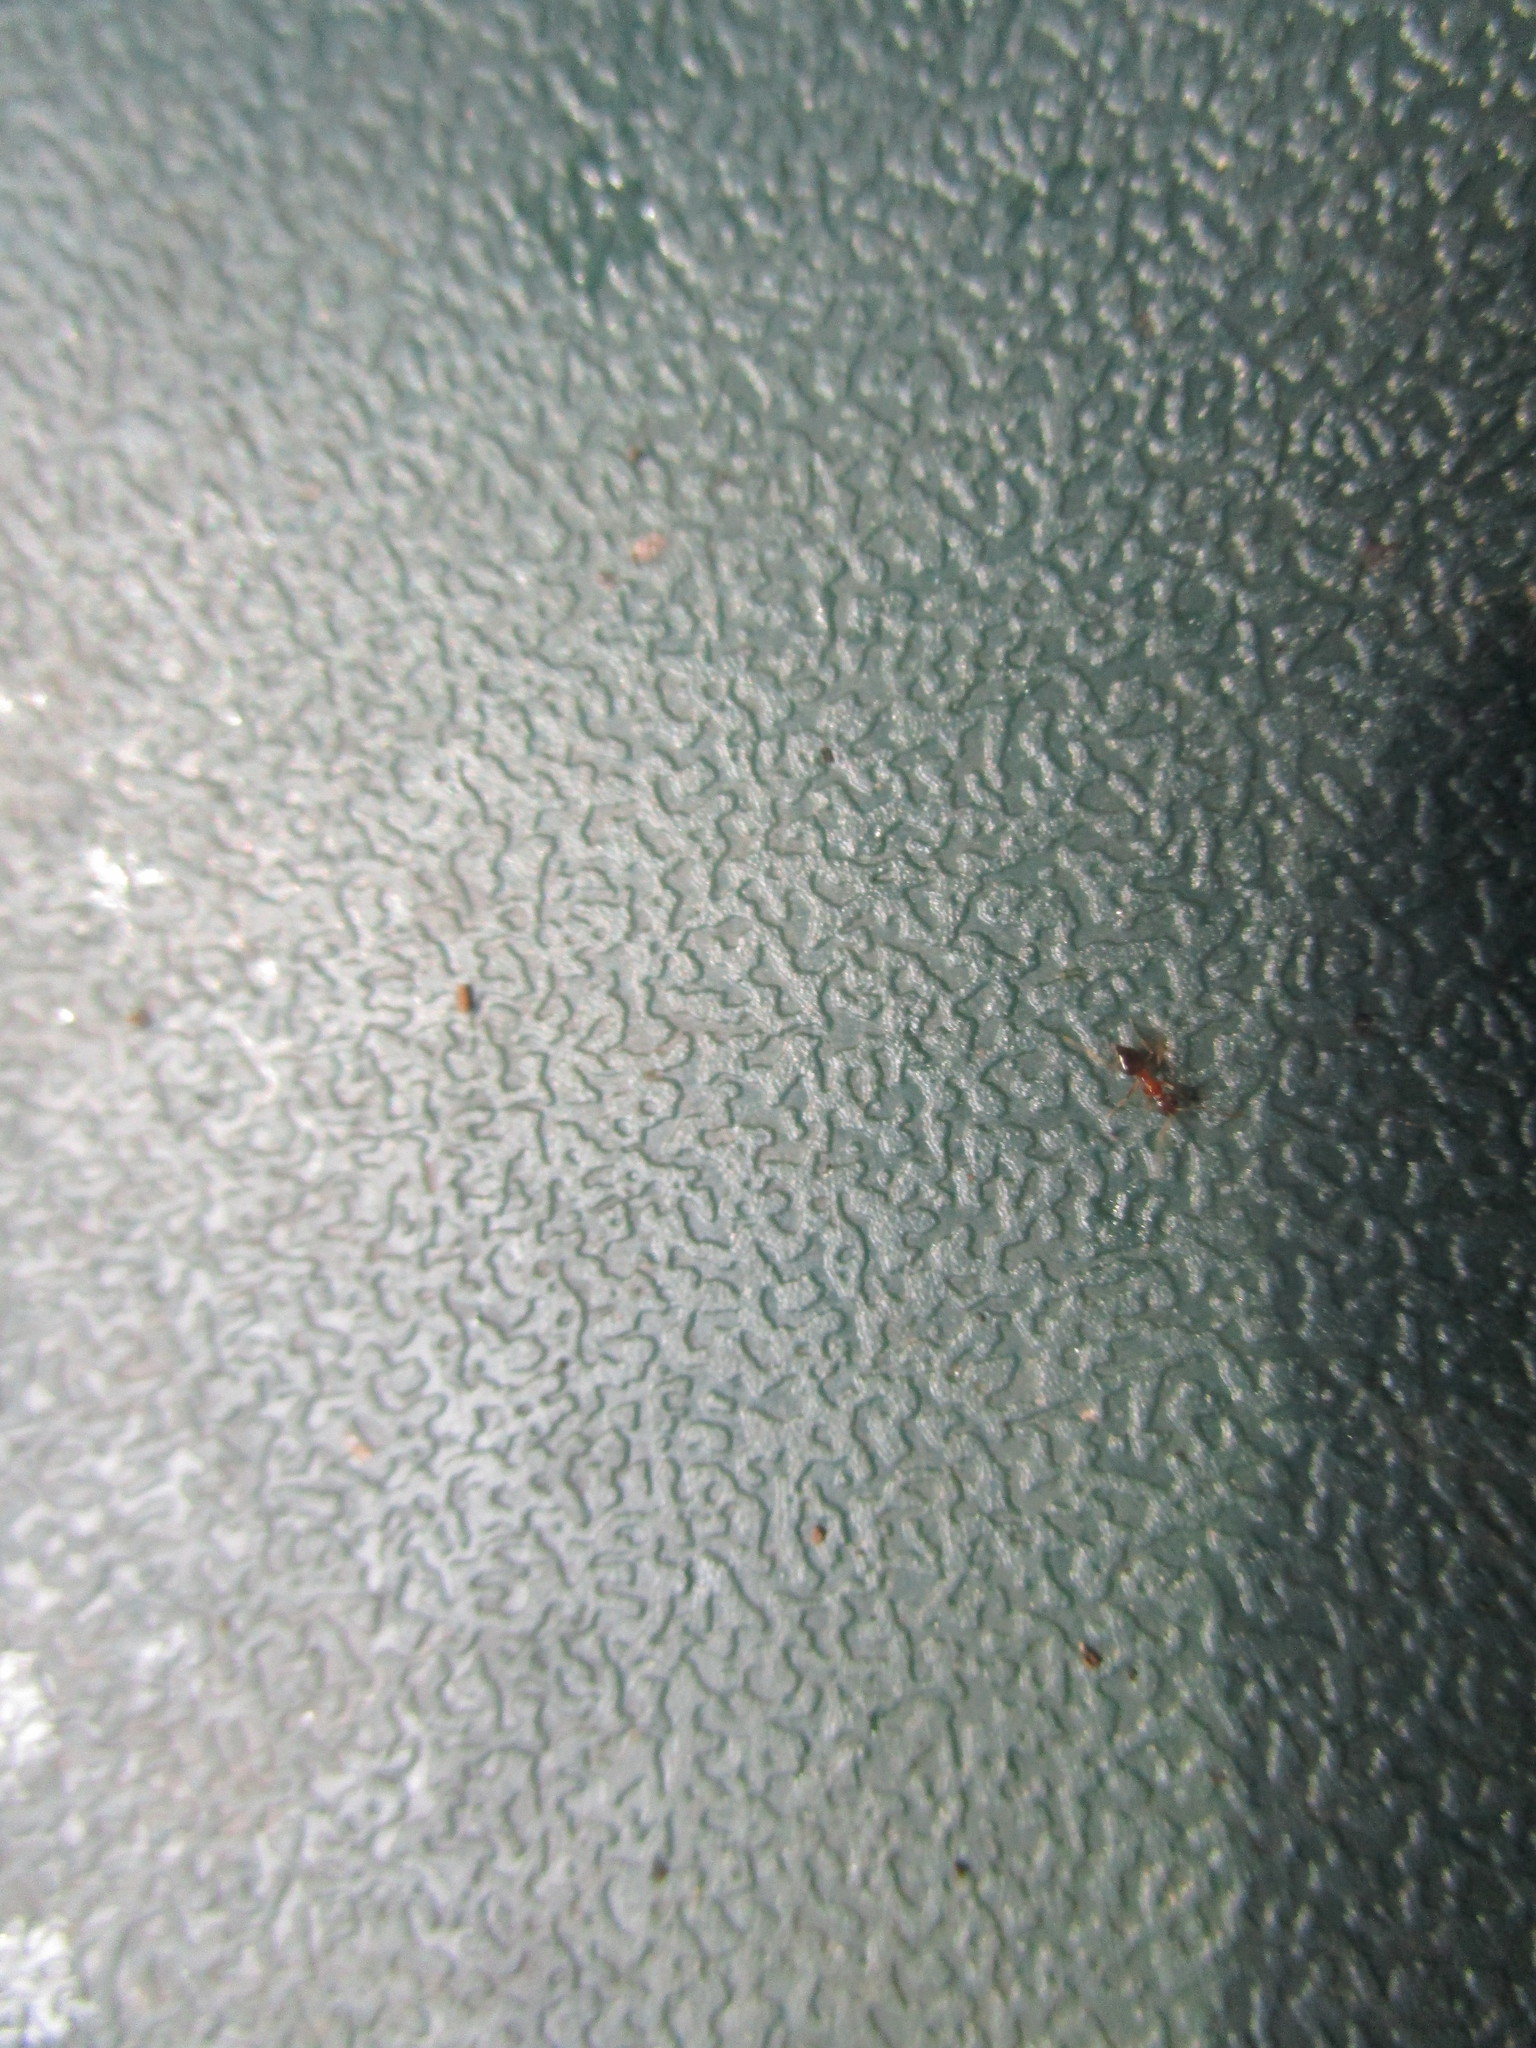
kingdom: Animalia
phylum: Arthropoda
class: Insecta
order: Hymenoptera
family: Formicidae
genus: Paratrechina
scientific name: Paratrechina flavipes
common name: Eastern asian formicine ant
